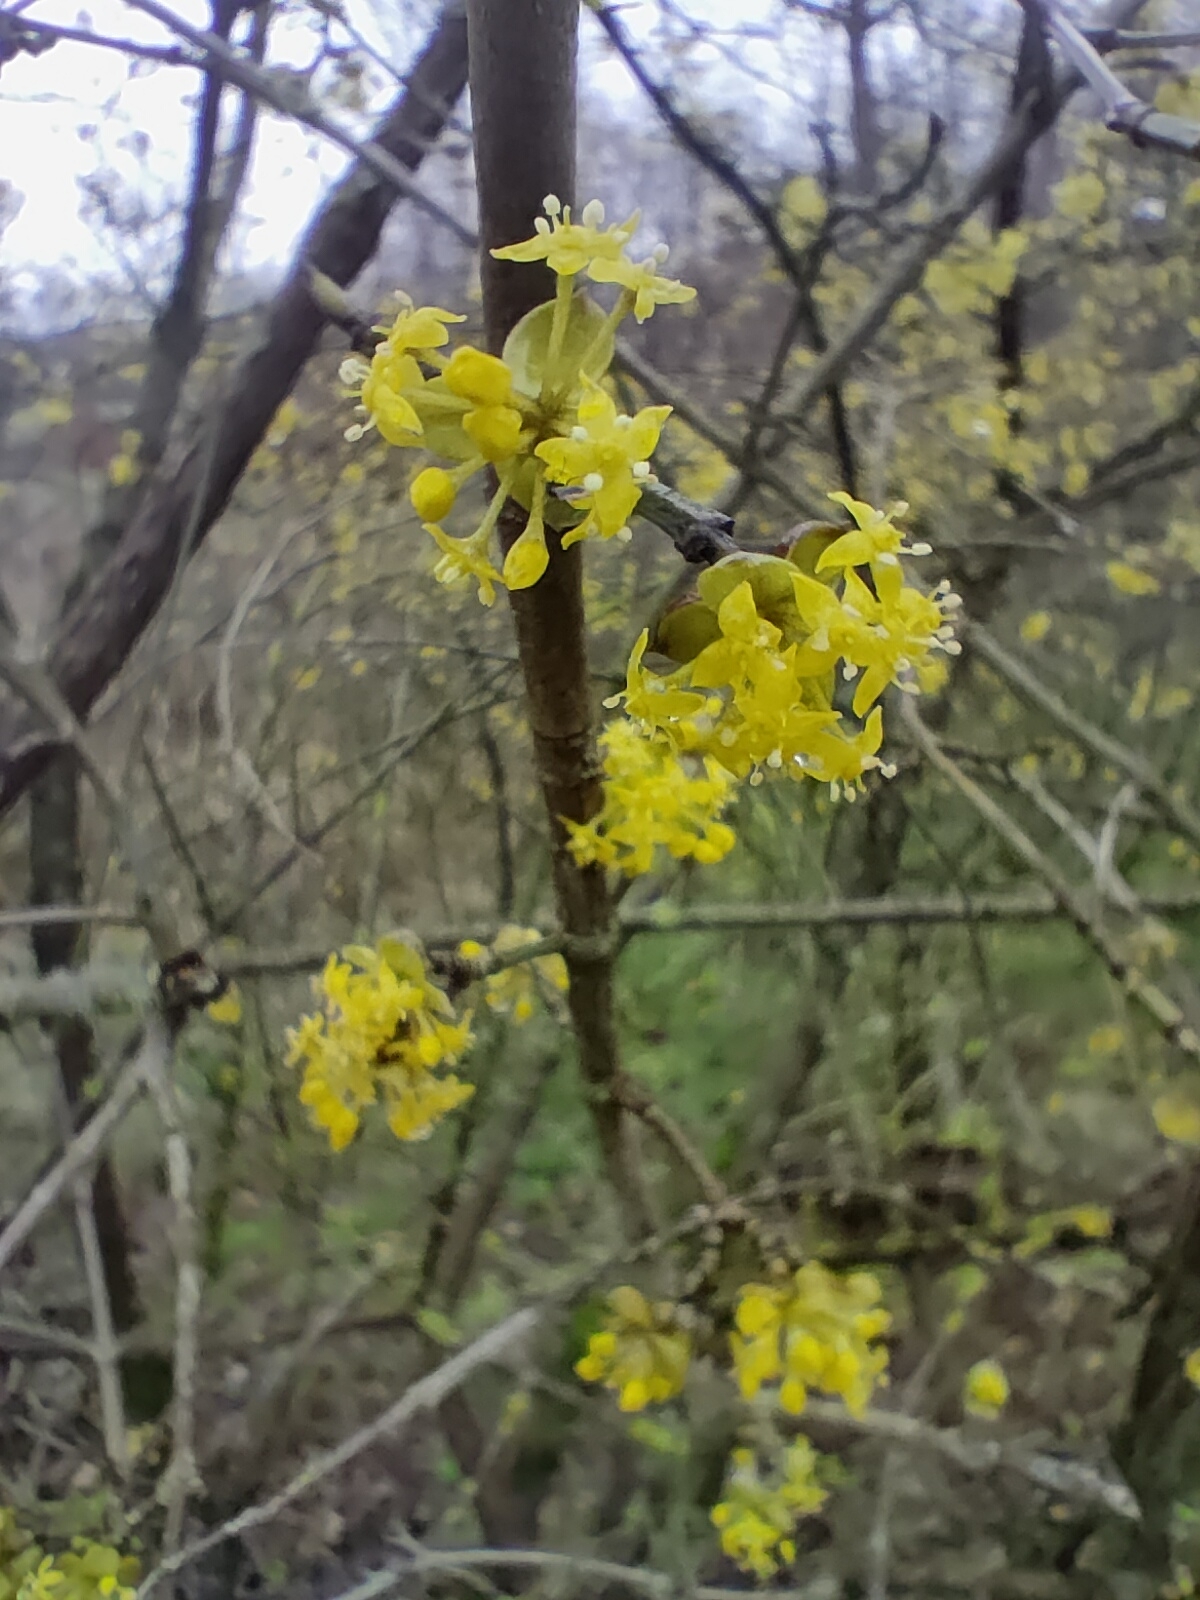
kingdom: Plantae
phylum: Tracheophyta
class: Magnoliopsida
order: Cornales
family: Cornaceae
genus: Cornus
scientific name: Cornus mas
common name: Cornelian-cherry
